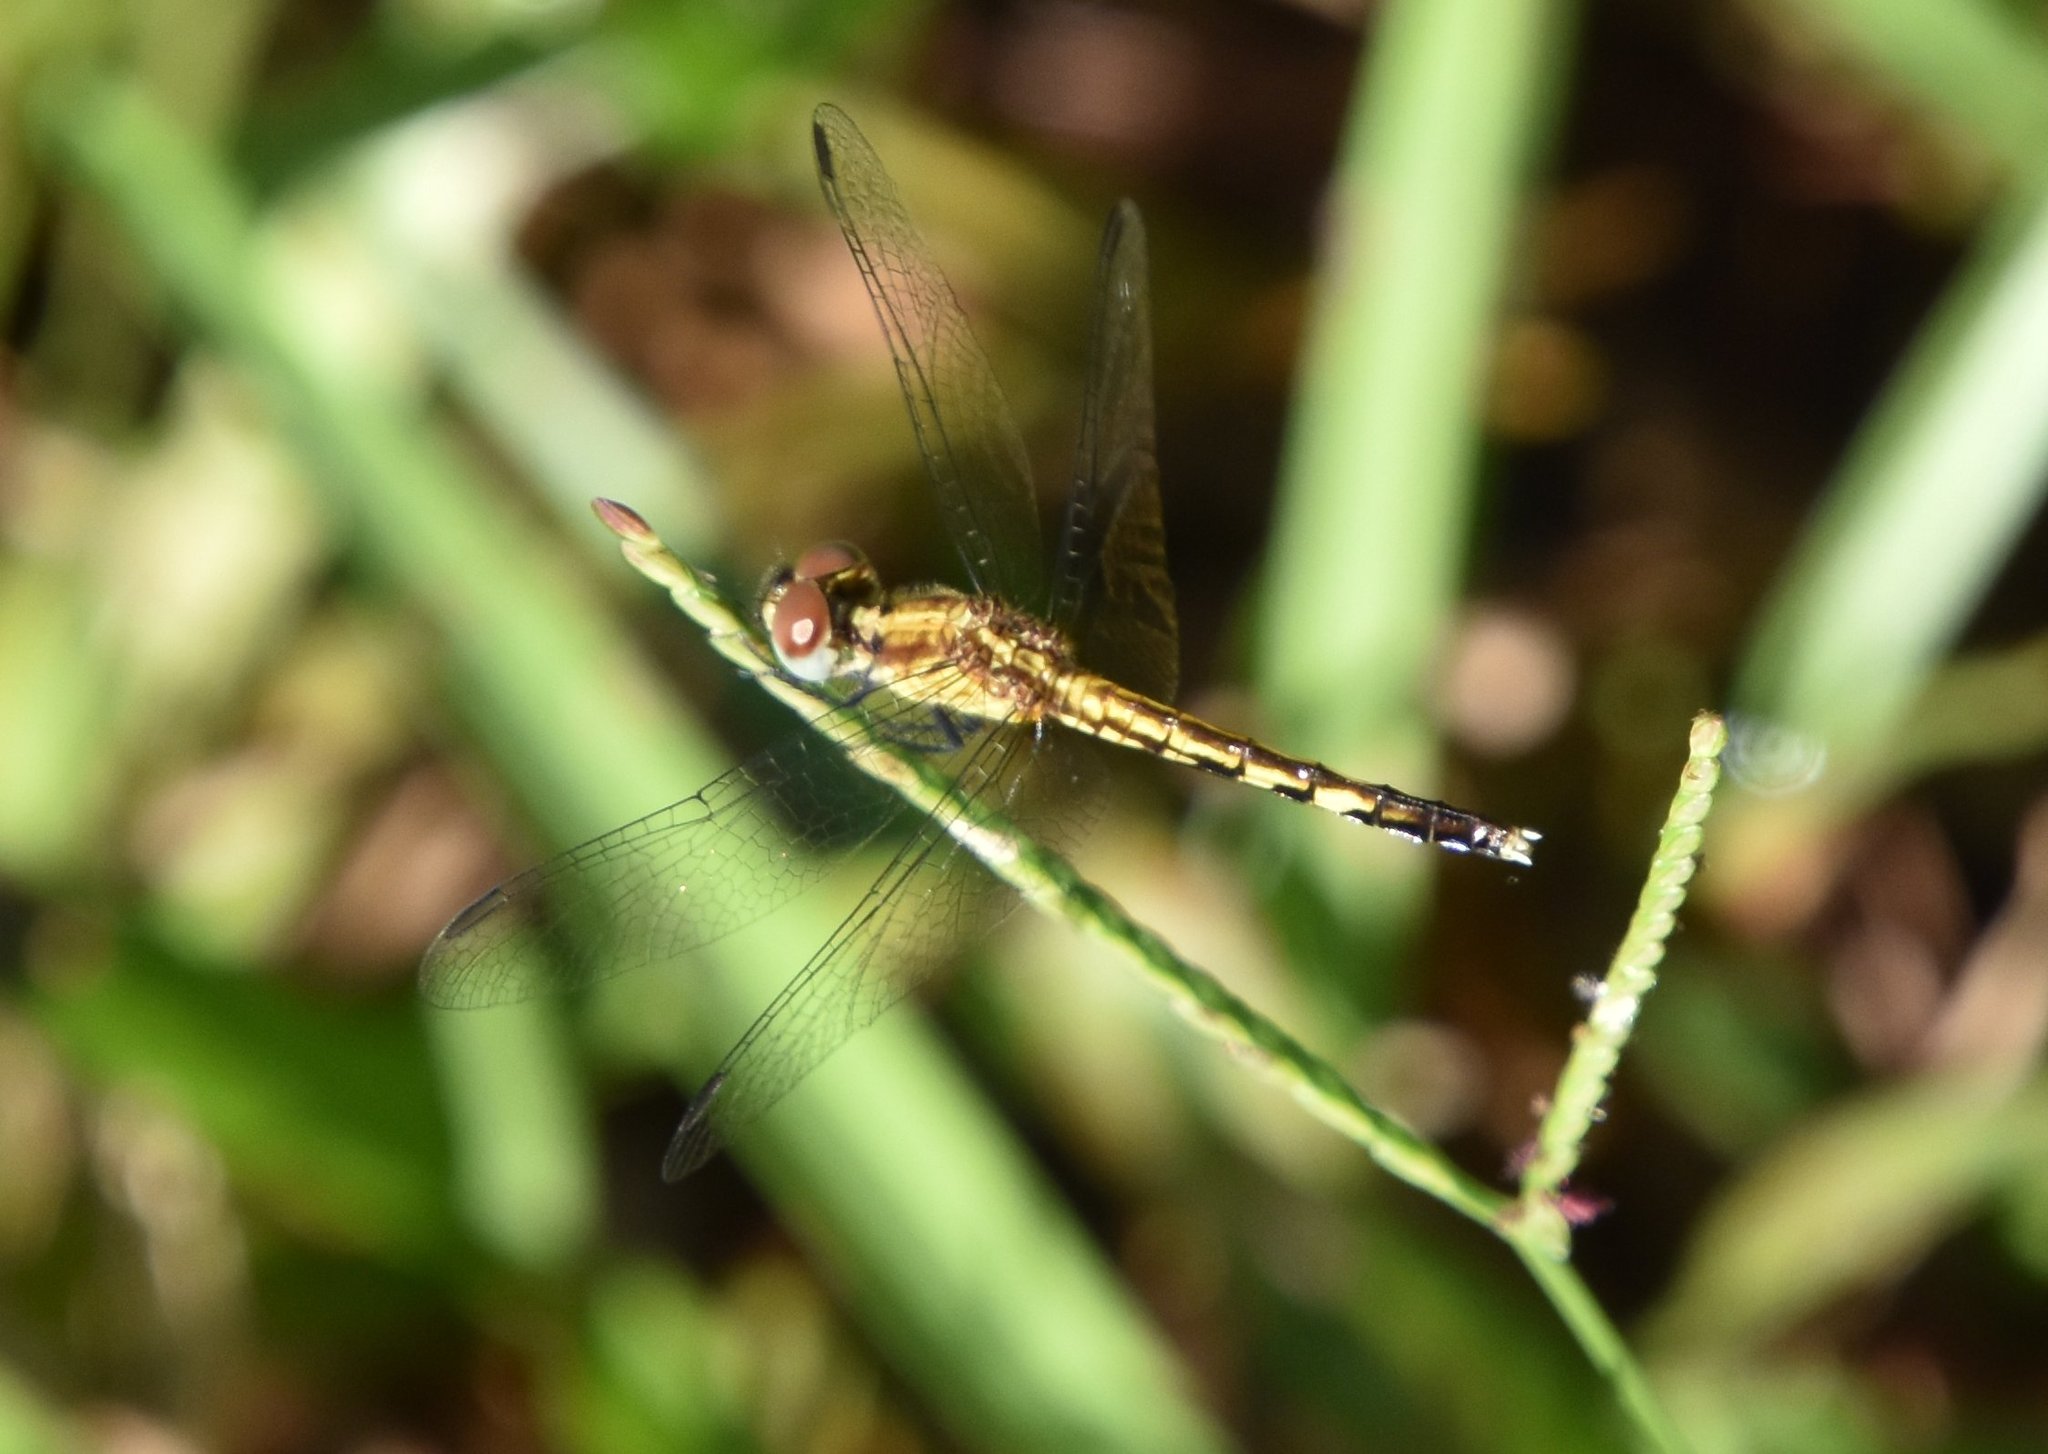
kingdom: Animalia
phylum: Arthropoda
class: Insecta
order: Odonata
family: Libellulidae
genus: Erythrodiplax
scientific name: Erythrodiplax minuscula
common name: Little blue dragonlet
